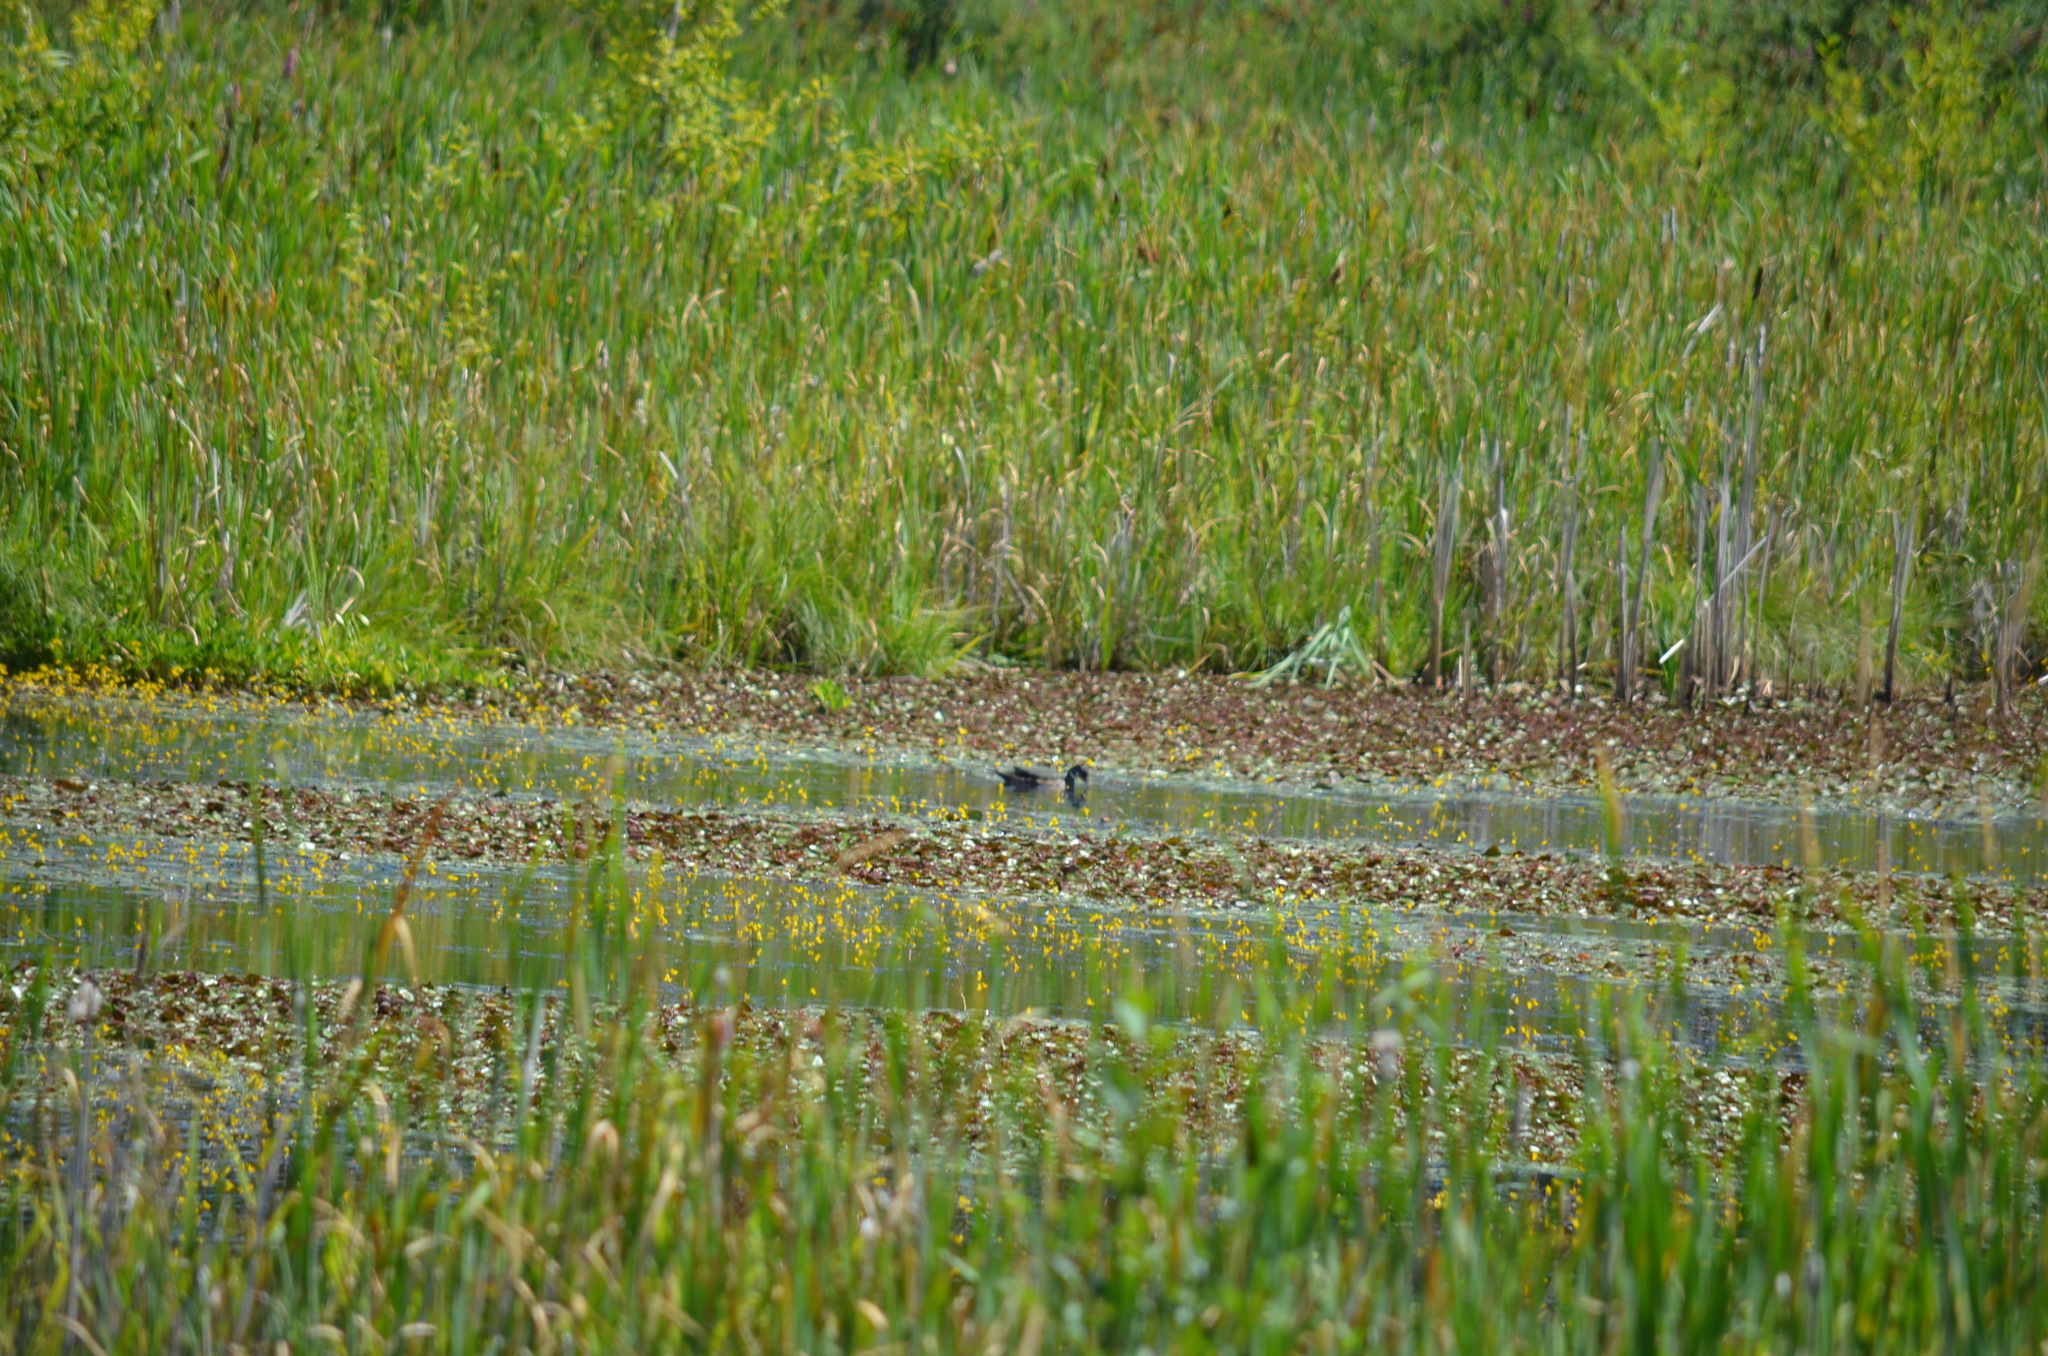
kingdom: Animalia
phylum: Chordata
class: Aves
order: Anseriformes
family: Anatidae
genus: Aix
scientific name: Aix sponsa
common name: Wood duck
